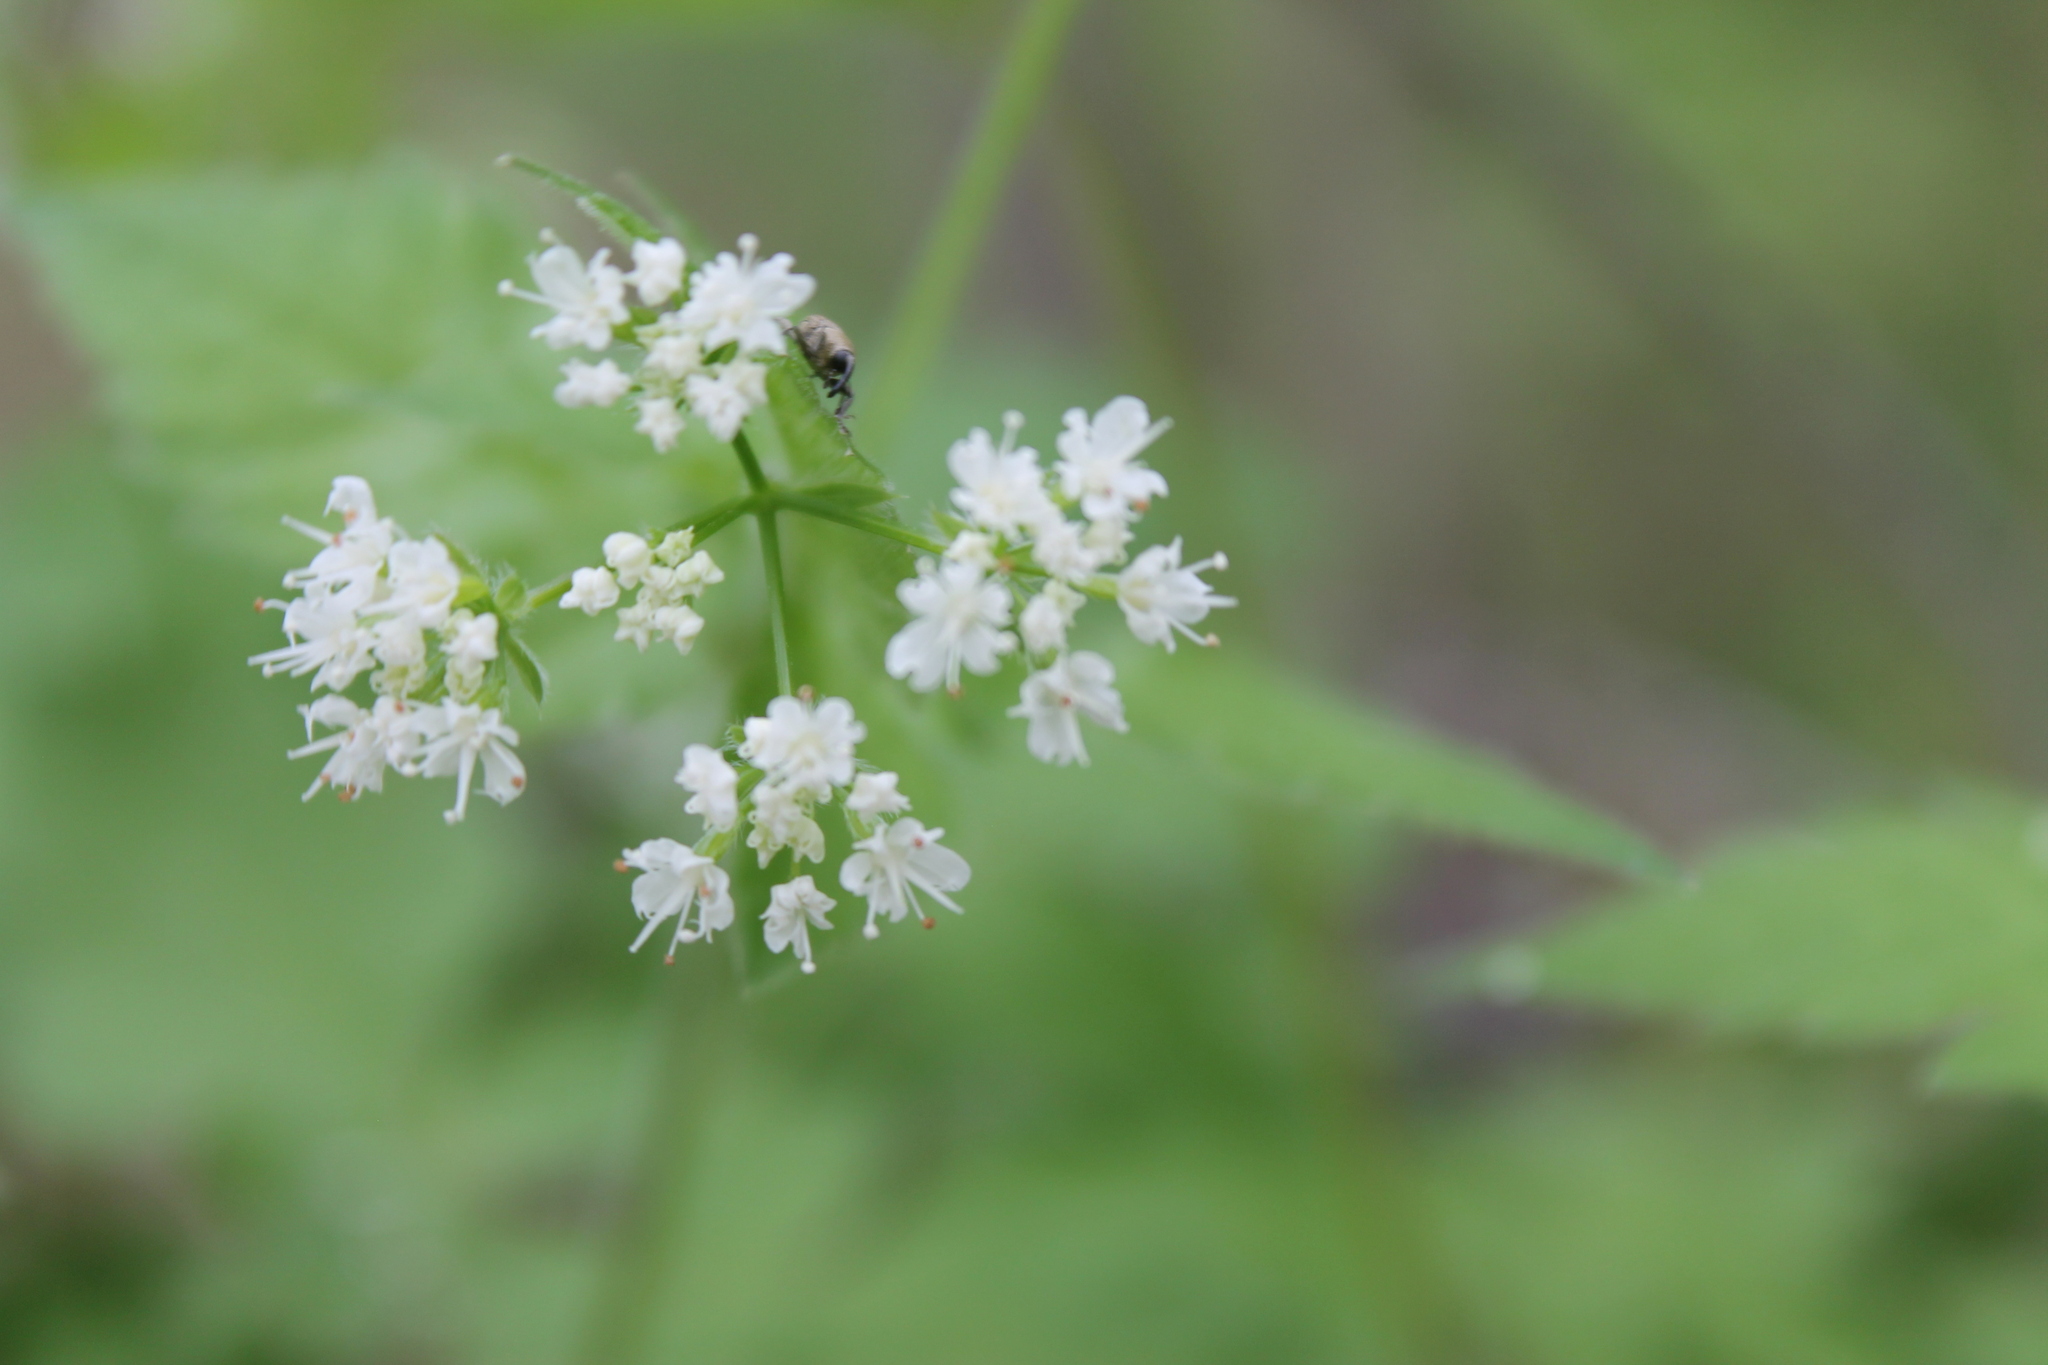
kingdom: Plantae
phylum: Tracheophyta
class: Magnoliopsida
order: Apiales
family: Apiaceae
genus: Osmorhiza
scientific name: Osmorhiza longistylis
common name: Smooth sweet cicely
